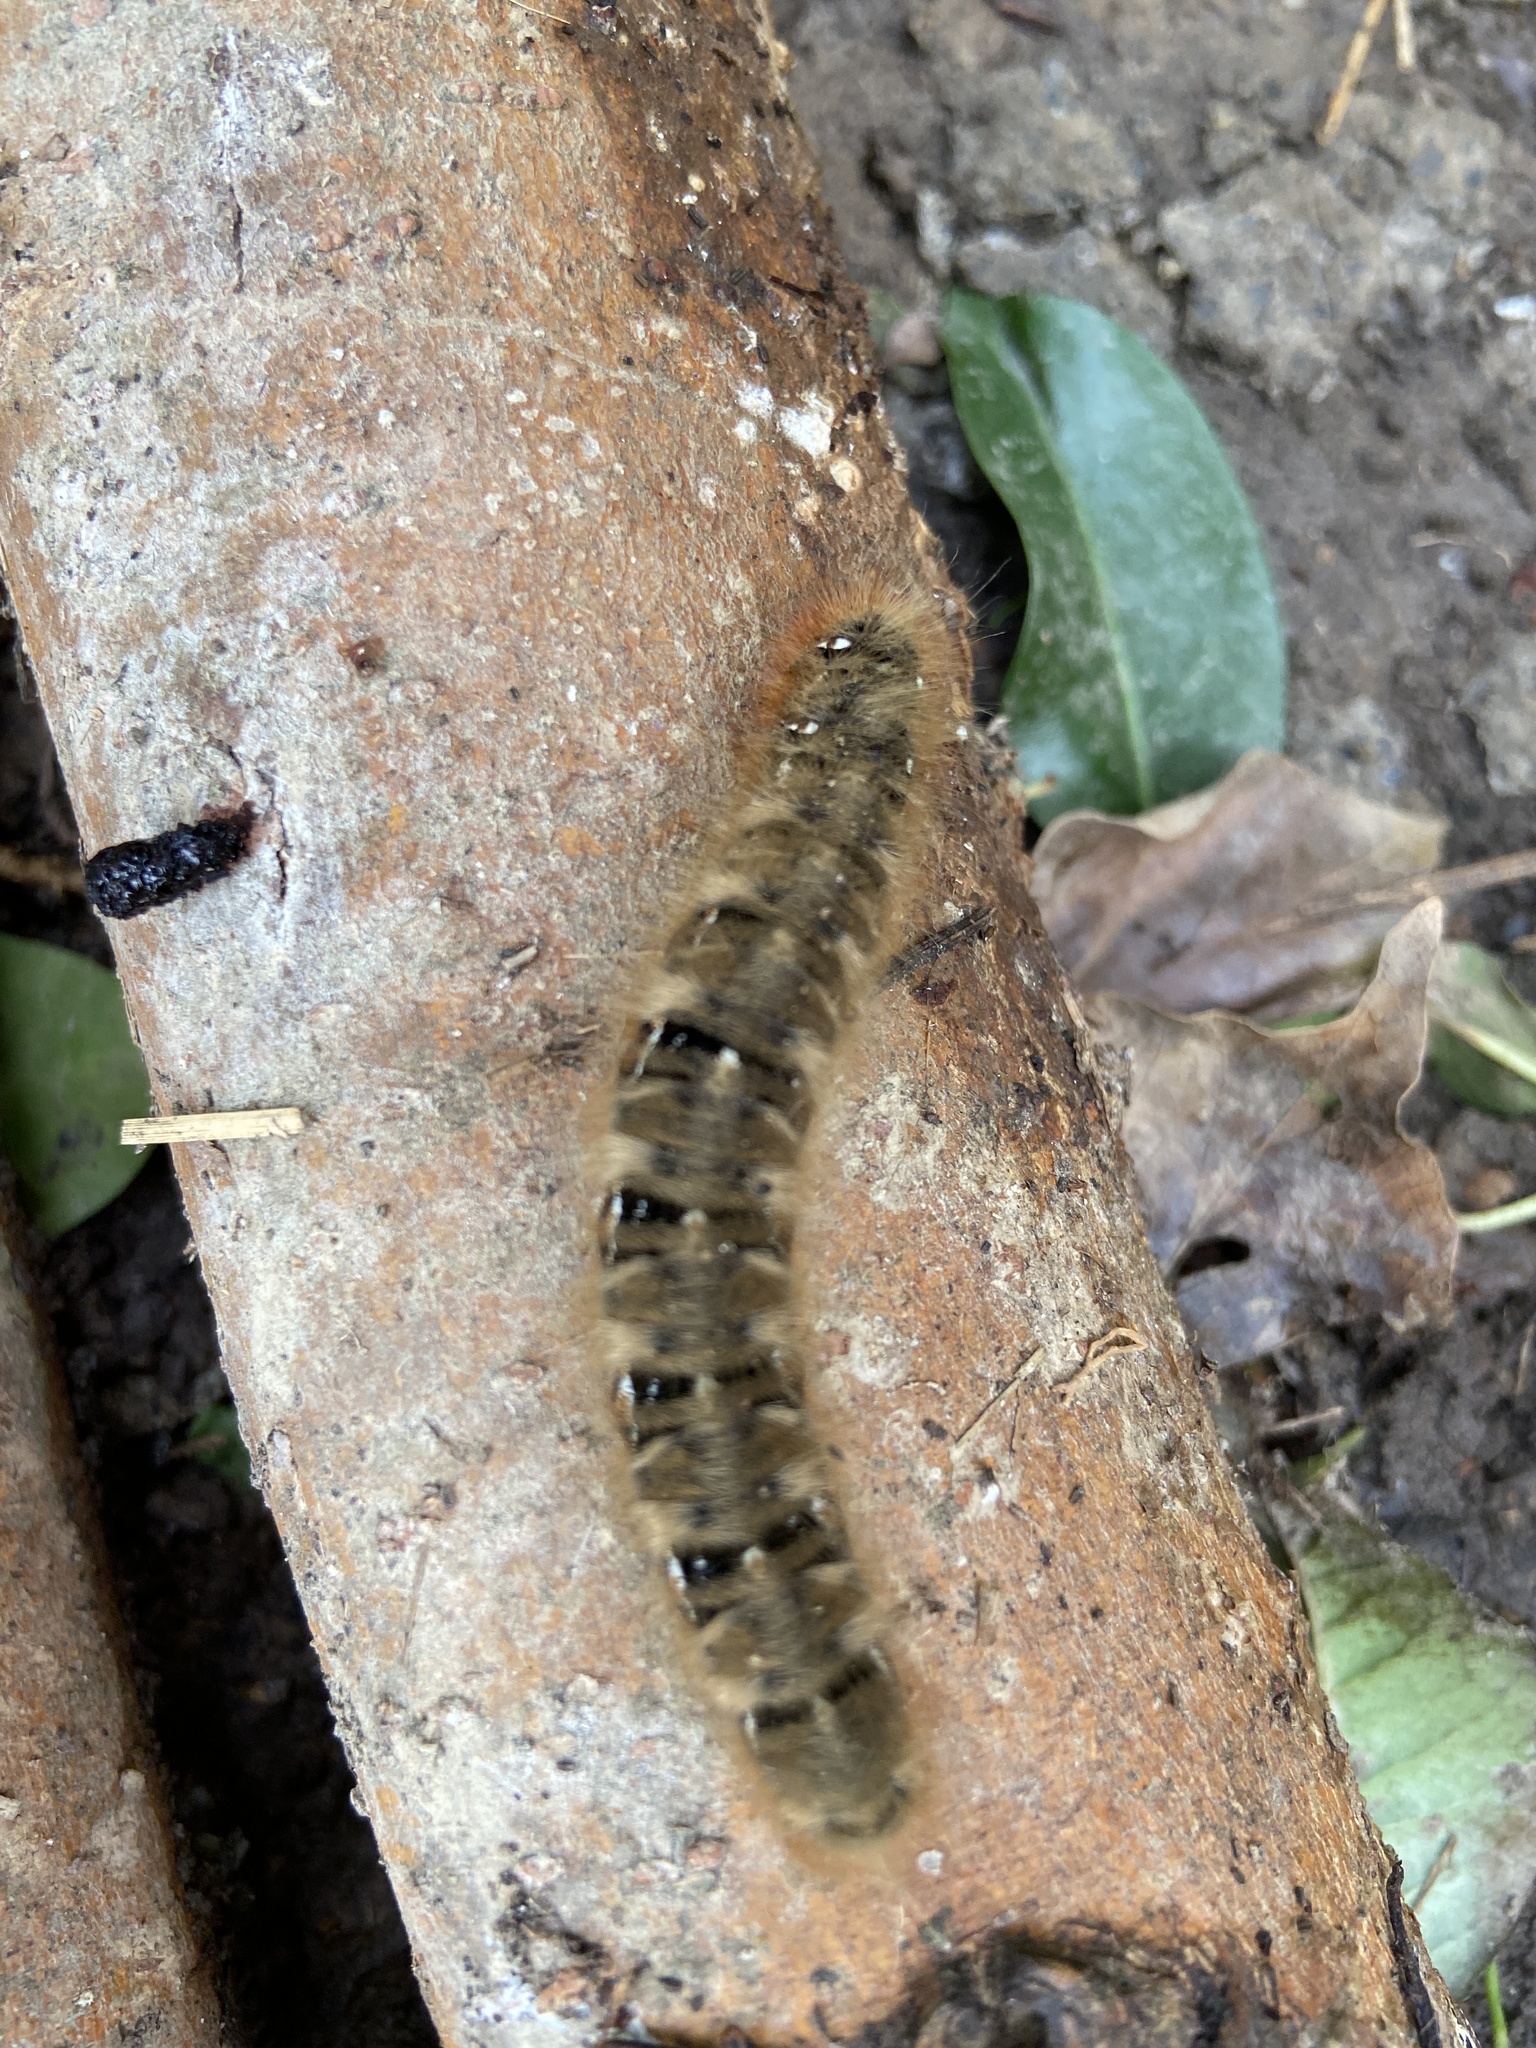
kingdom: Animalia
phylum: Arthropoda
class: Insecta
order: Lepidoptera
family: Lasiocampidae
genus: Lasiocampa
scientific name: Lasiocampa quercus
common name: Oak eggar
